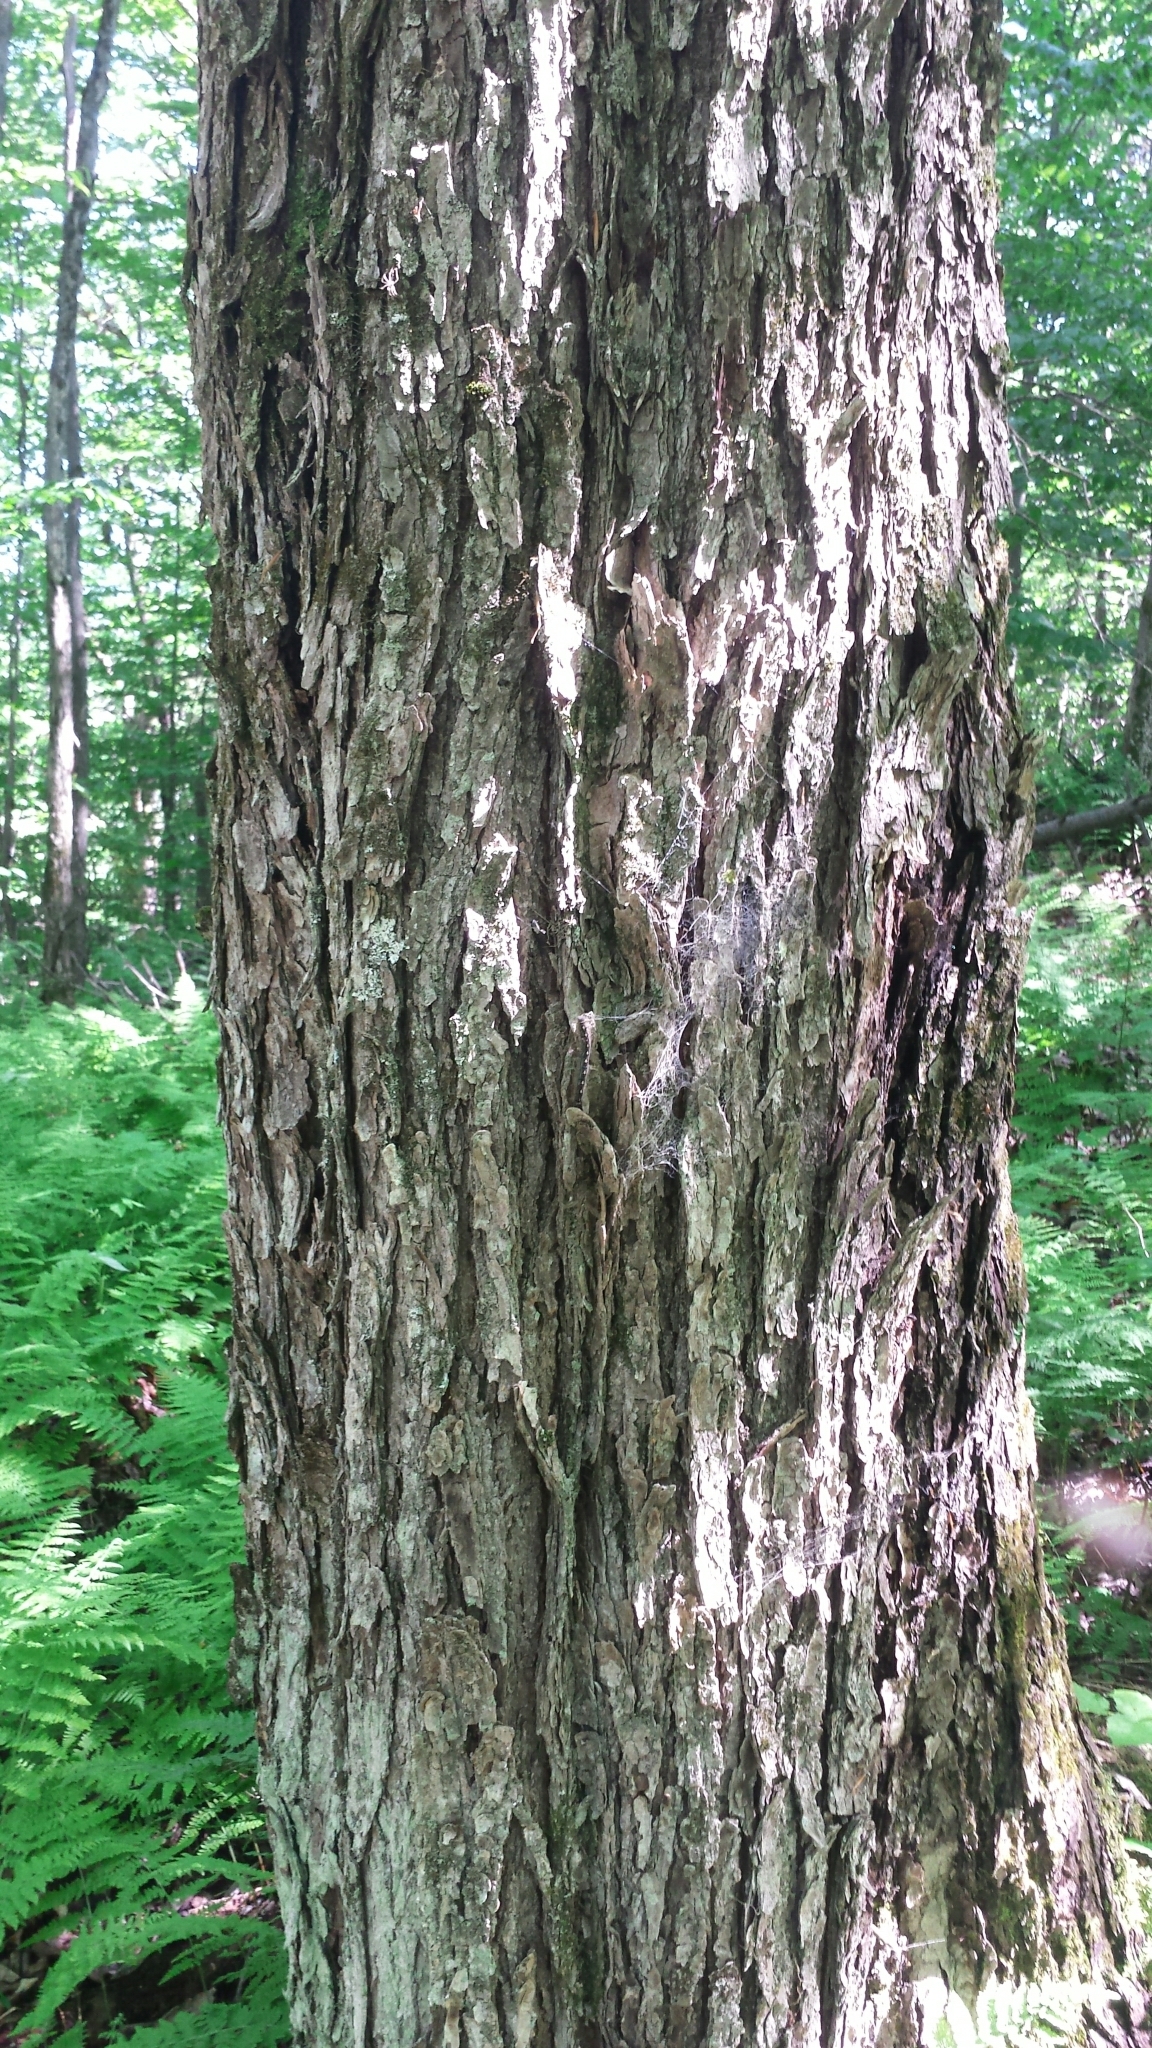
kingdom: Plantae
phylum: Tracheophyta
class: Magnoliopsida
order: Sapindales
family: Sapindaceae
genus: Acer
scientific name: Acer saccharum
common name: Sugar maple
